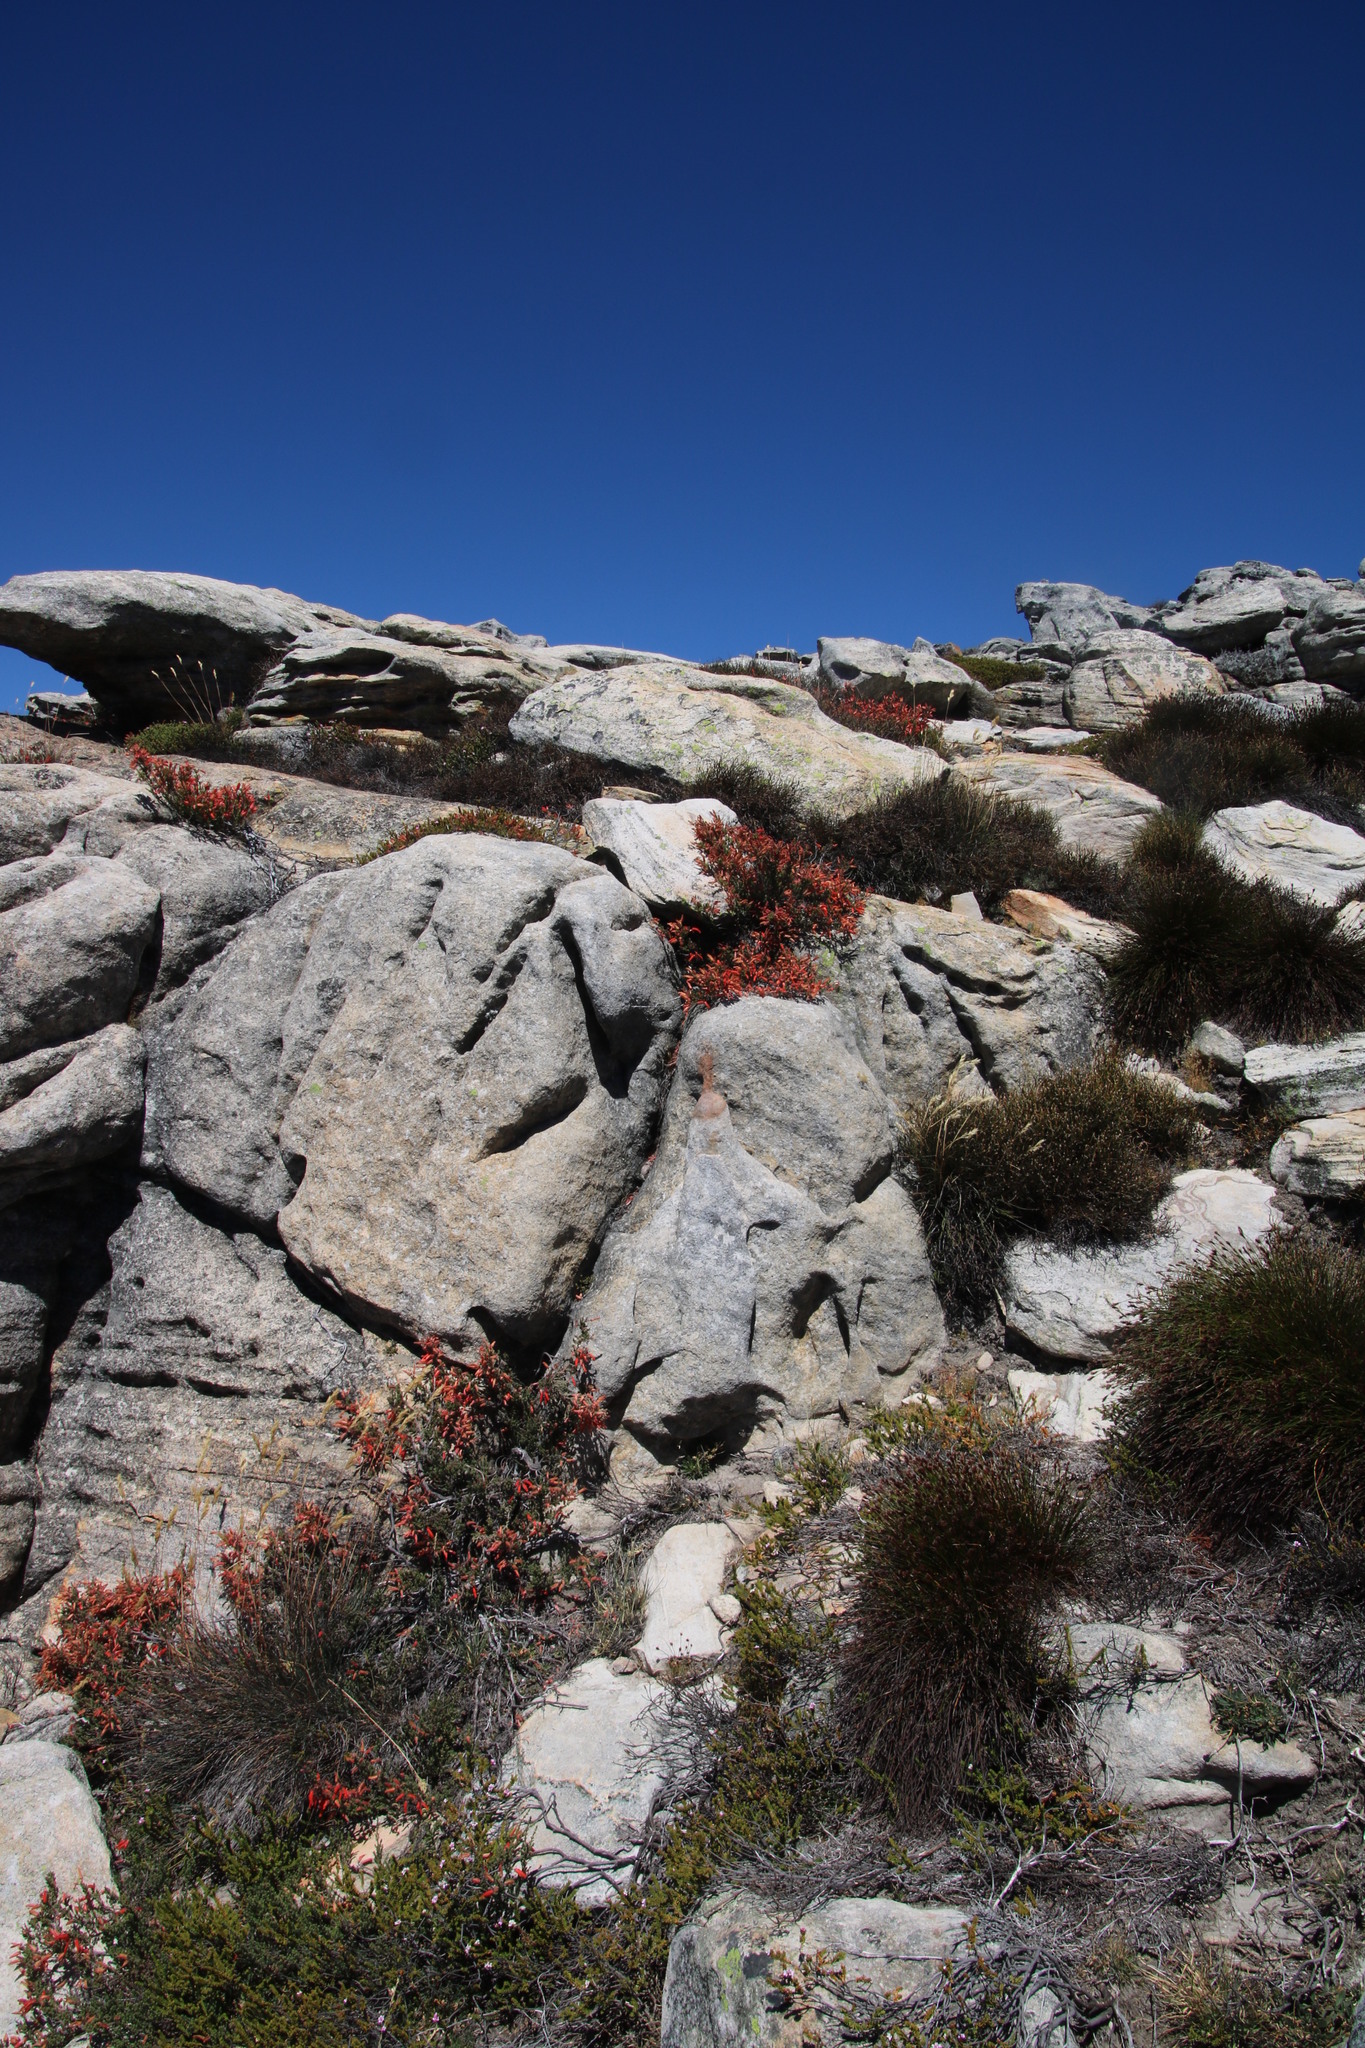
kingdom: Plantae
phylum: Tracheophyta
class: Magnoliopsida
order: Ericales
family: Ericaceae
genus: Erica
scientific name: Erica tumida
